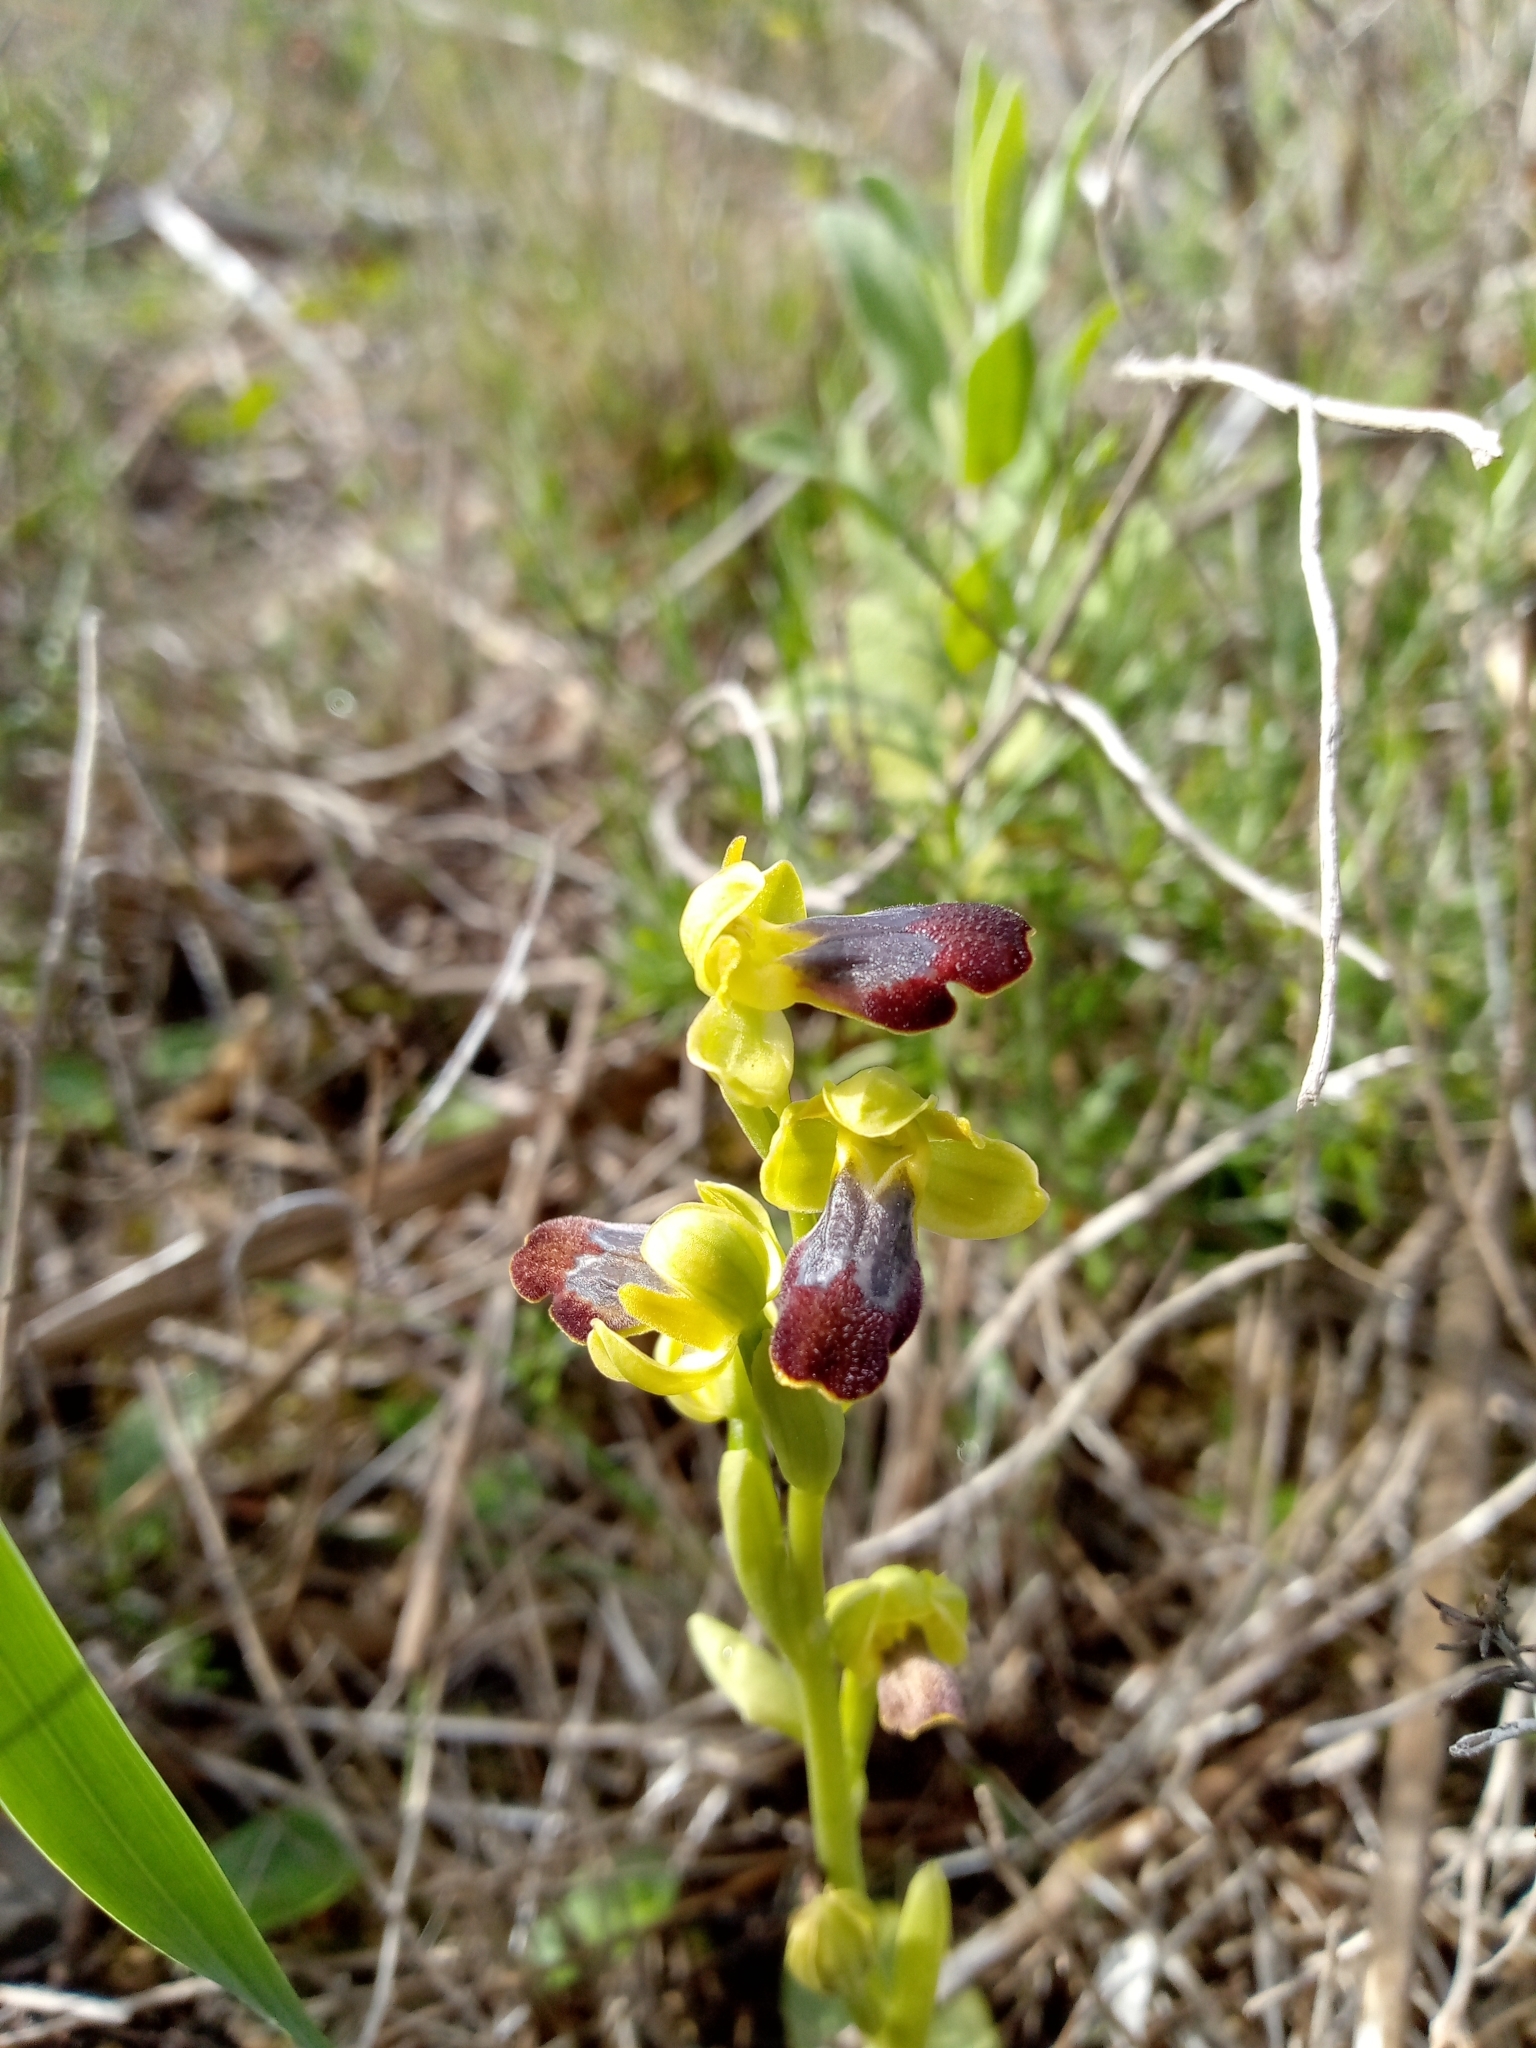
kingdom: Plantae
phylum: Tracheophyta
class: Liliopsida
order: Asparagales
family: Orchidaceae
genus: Ophrys
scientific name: Ophrys fusca
